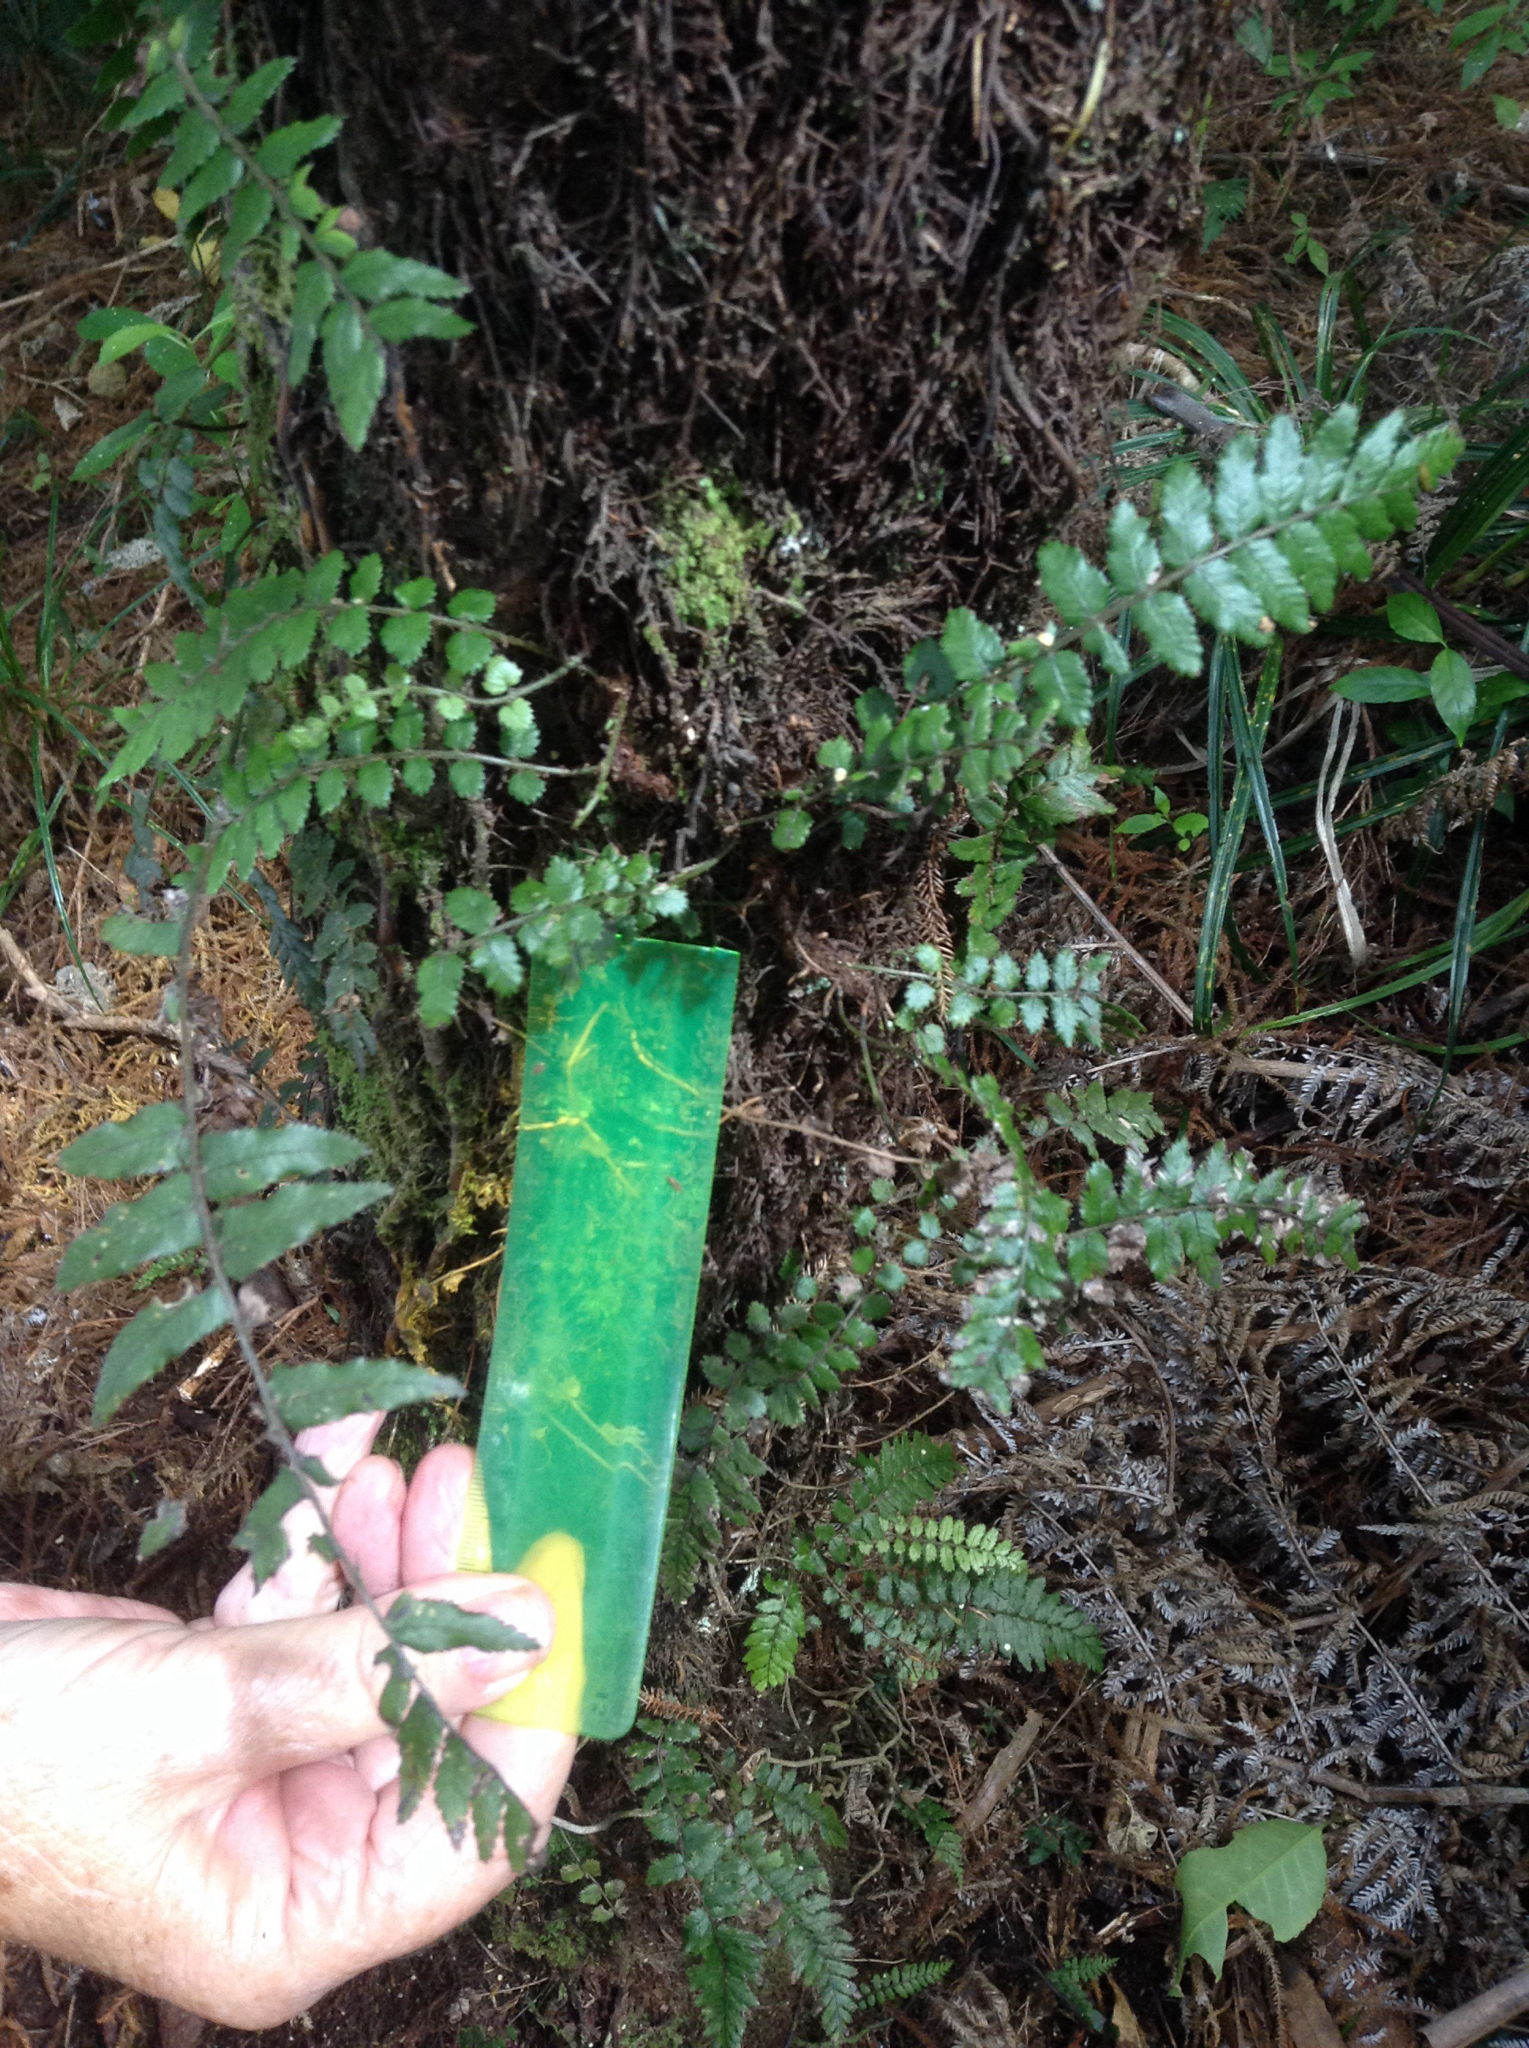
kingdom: Plantae
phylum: Tracheophyta
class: Polypodiopsida
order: Polypodiales
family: Blechnaceae
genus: Icarus
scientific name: Icarus filiformis
